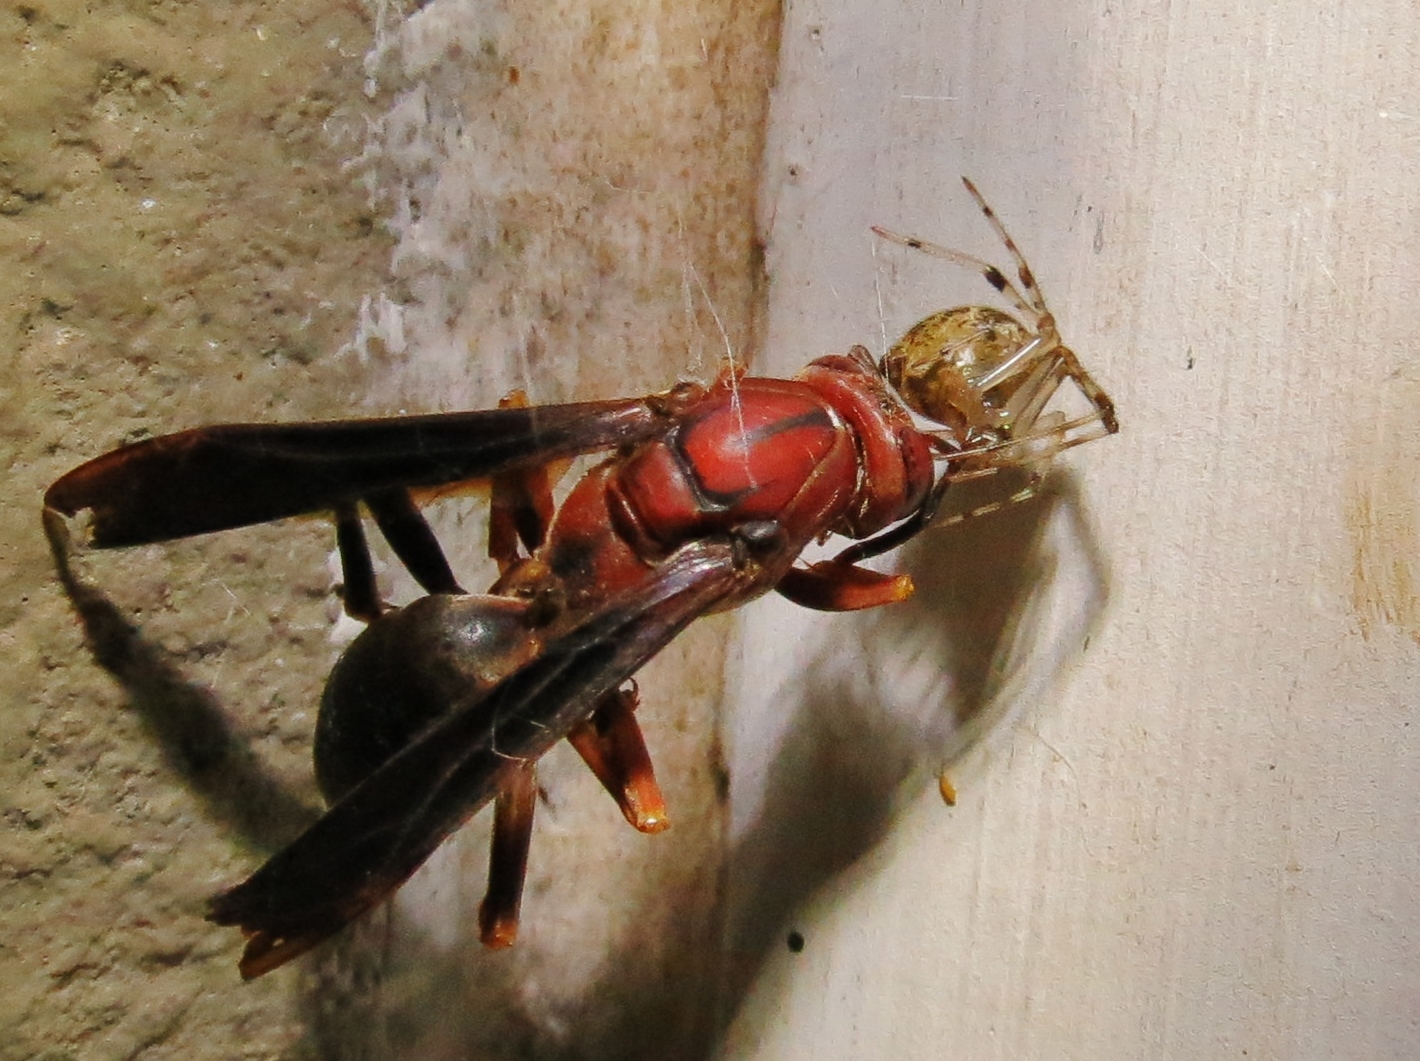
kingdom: Animalia
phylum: Arthropoda
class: Insecta
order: Hymenoptera
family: Eumenidae
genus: Polistes
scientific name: Polistes metricus
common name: Metric paper wasp
